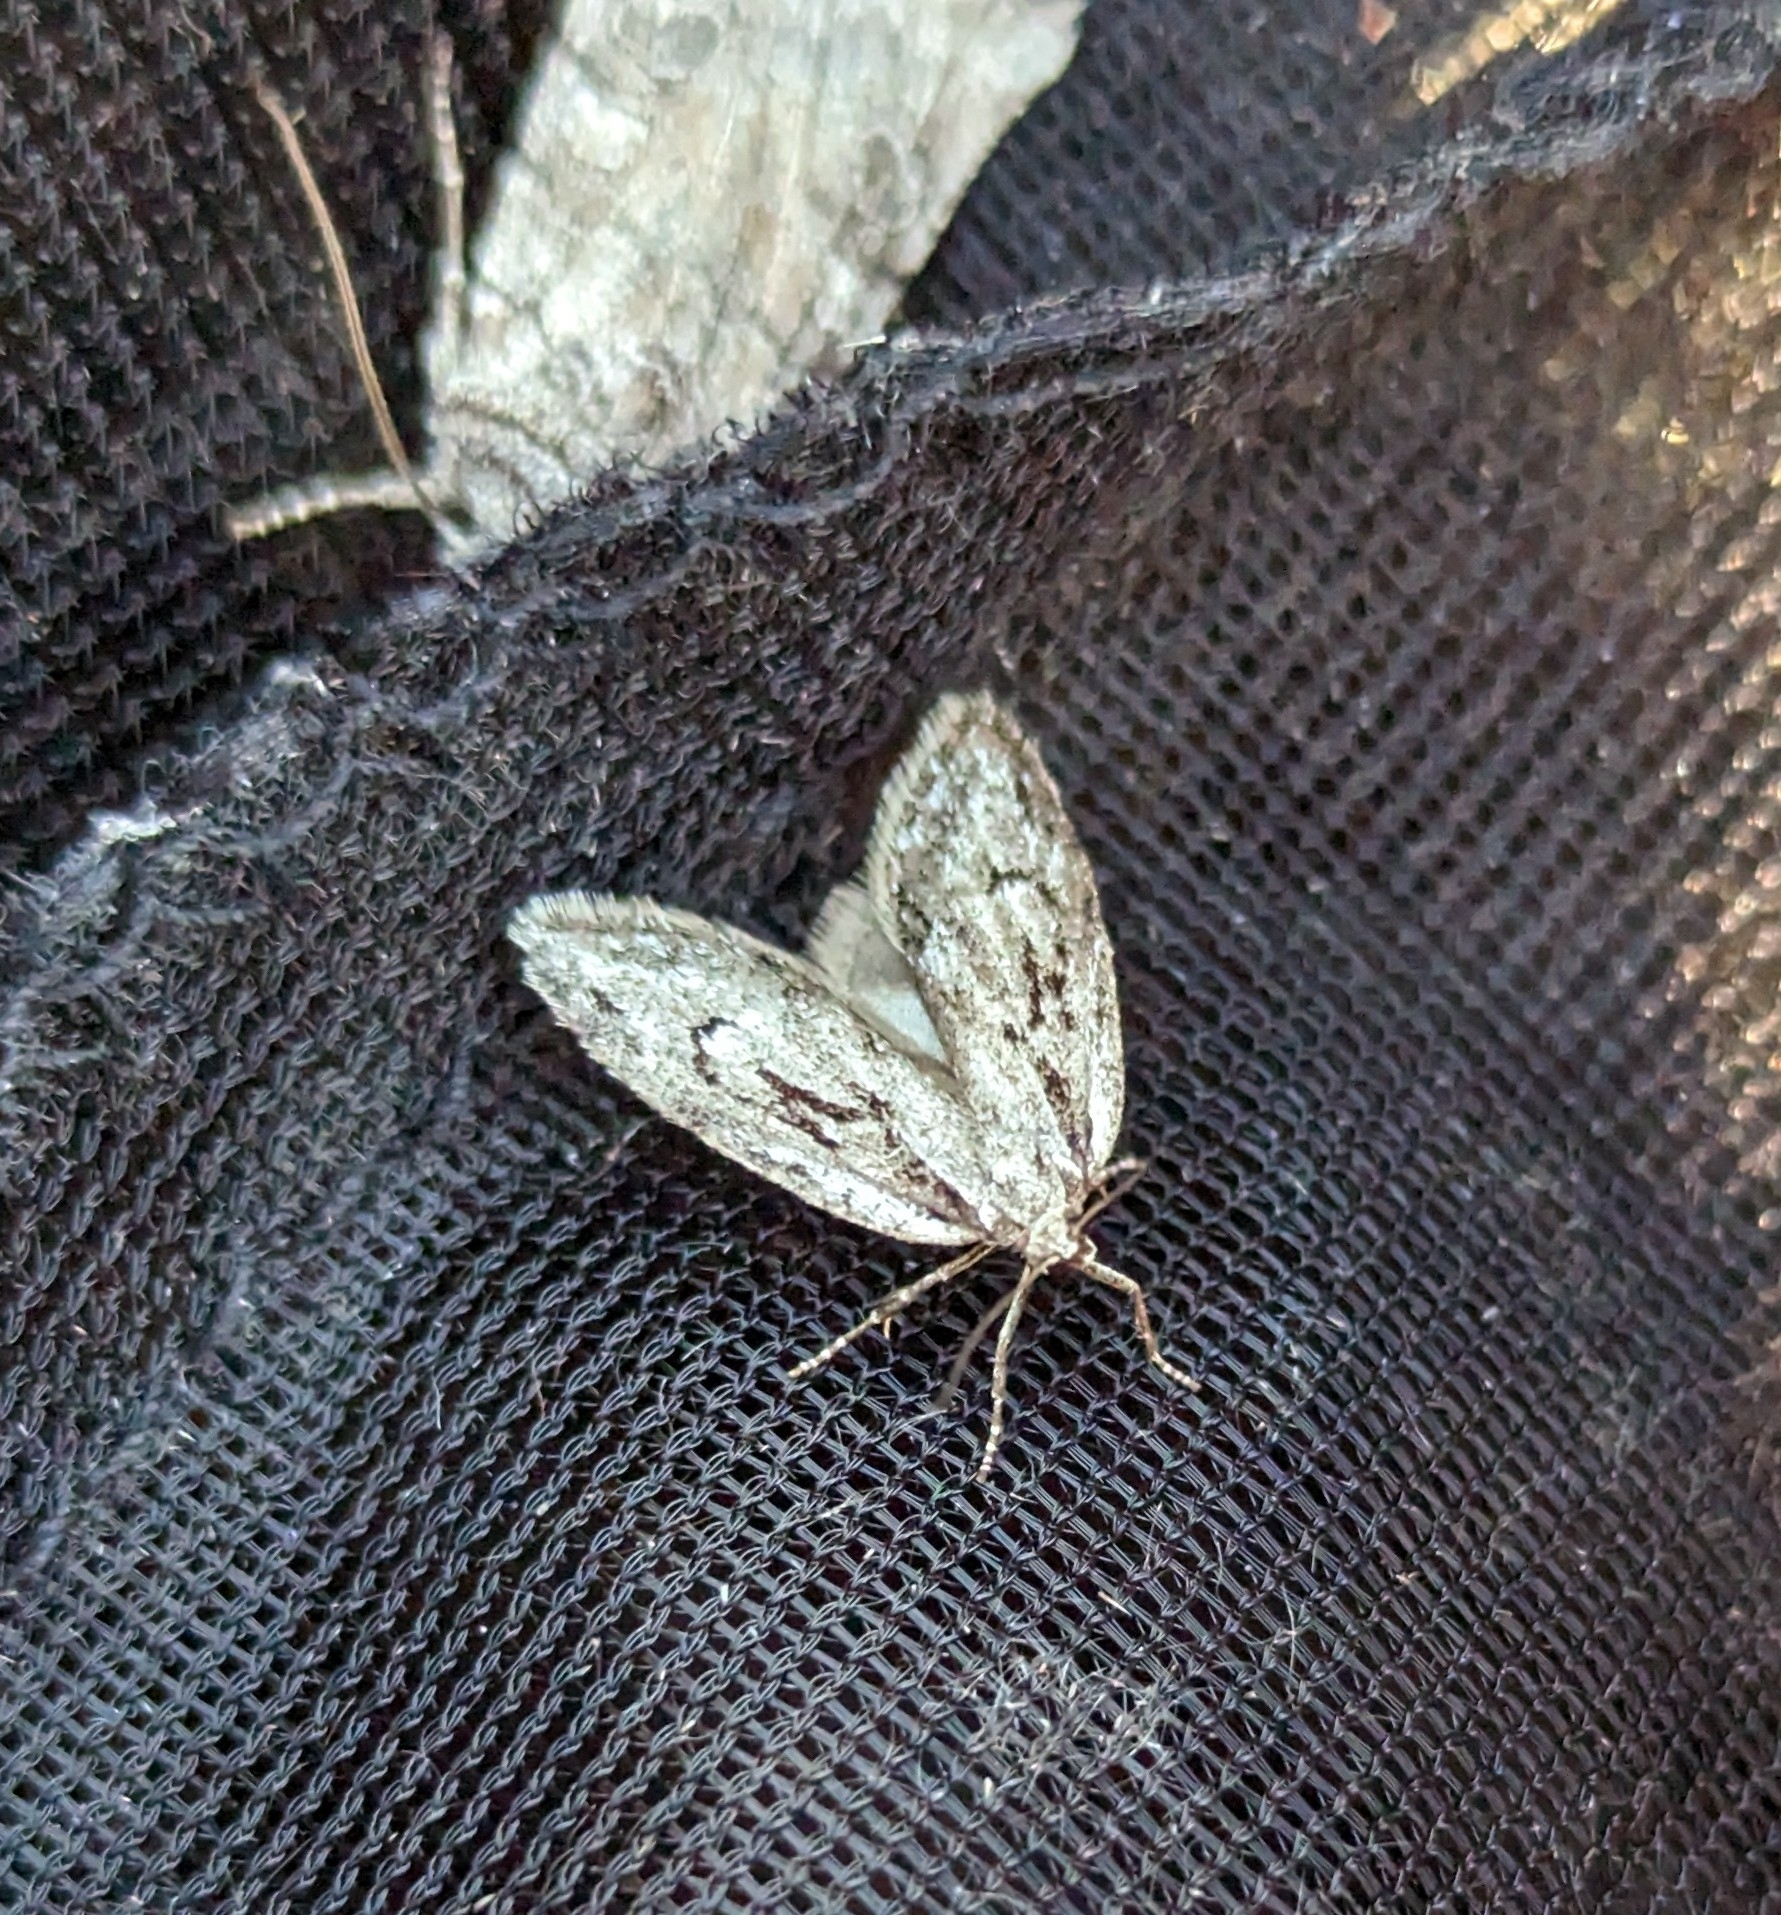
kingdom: Animalia
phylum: Arthropoda
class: Insecta
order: Lepidoptera
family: Depressariidae
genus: Semioscopis
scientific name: Semioscopis aurorella
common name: Aurora flatbody moth
